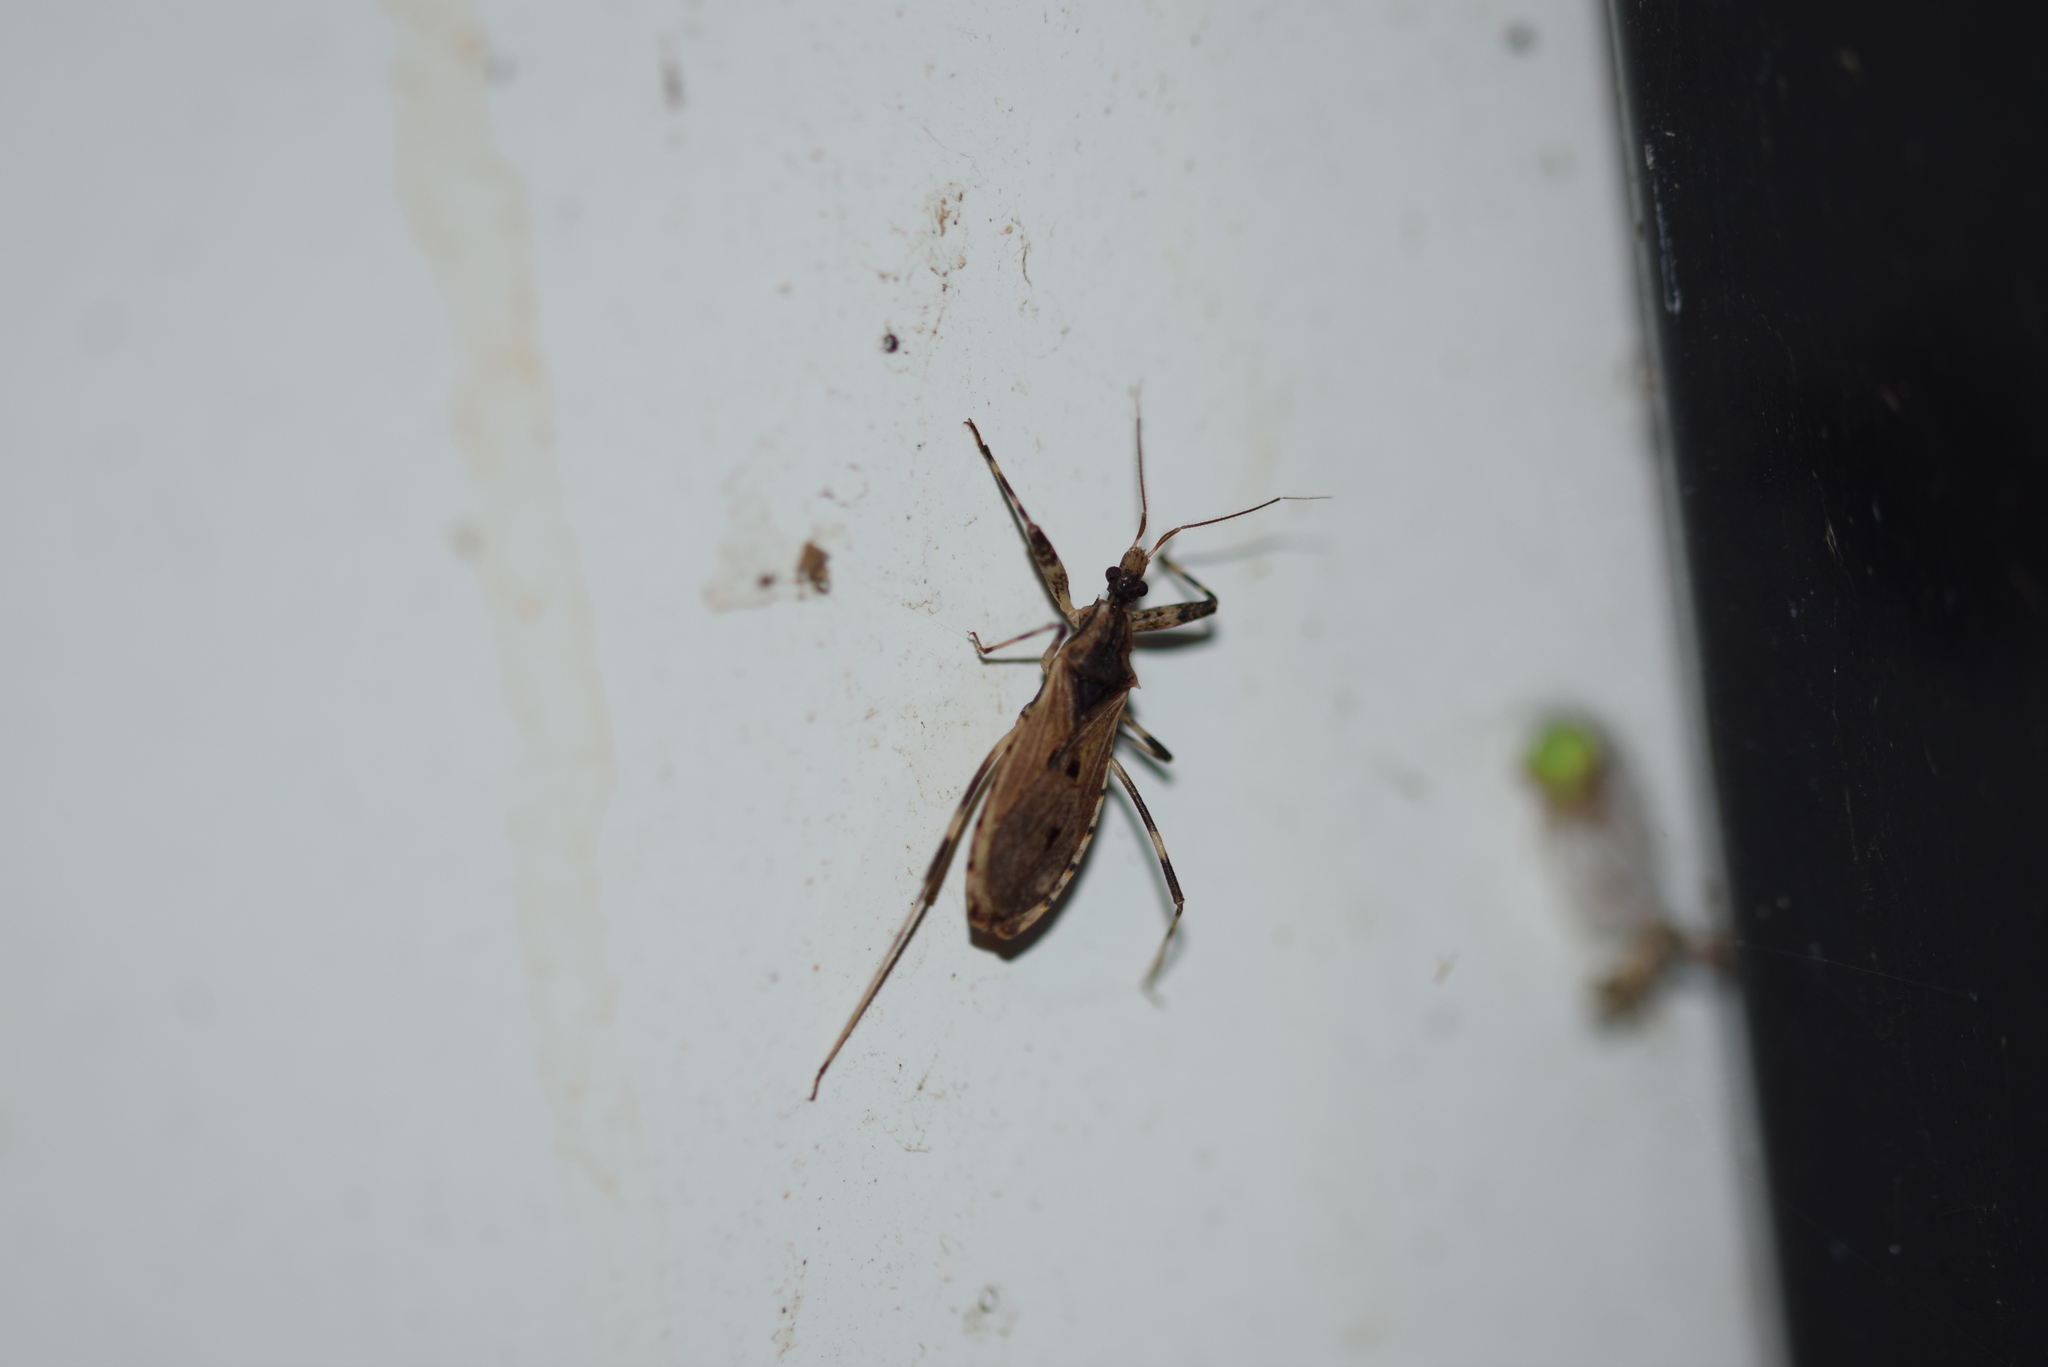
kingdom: Animalia
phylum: Arthropoda
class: Insecta
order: Hemiptera
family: Reduviidae
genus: Oncocephalus
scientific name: Oncocephalus geniculatus
